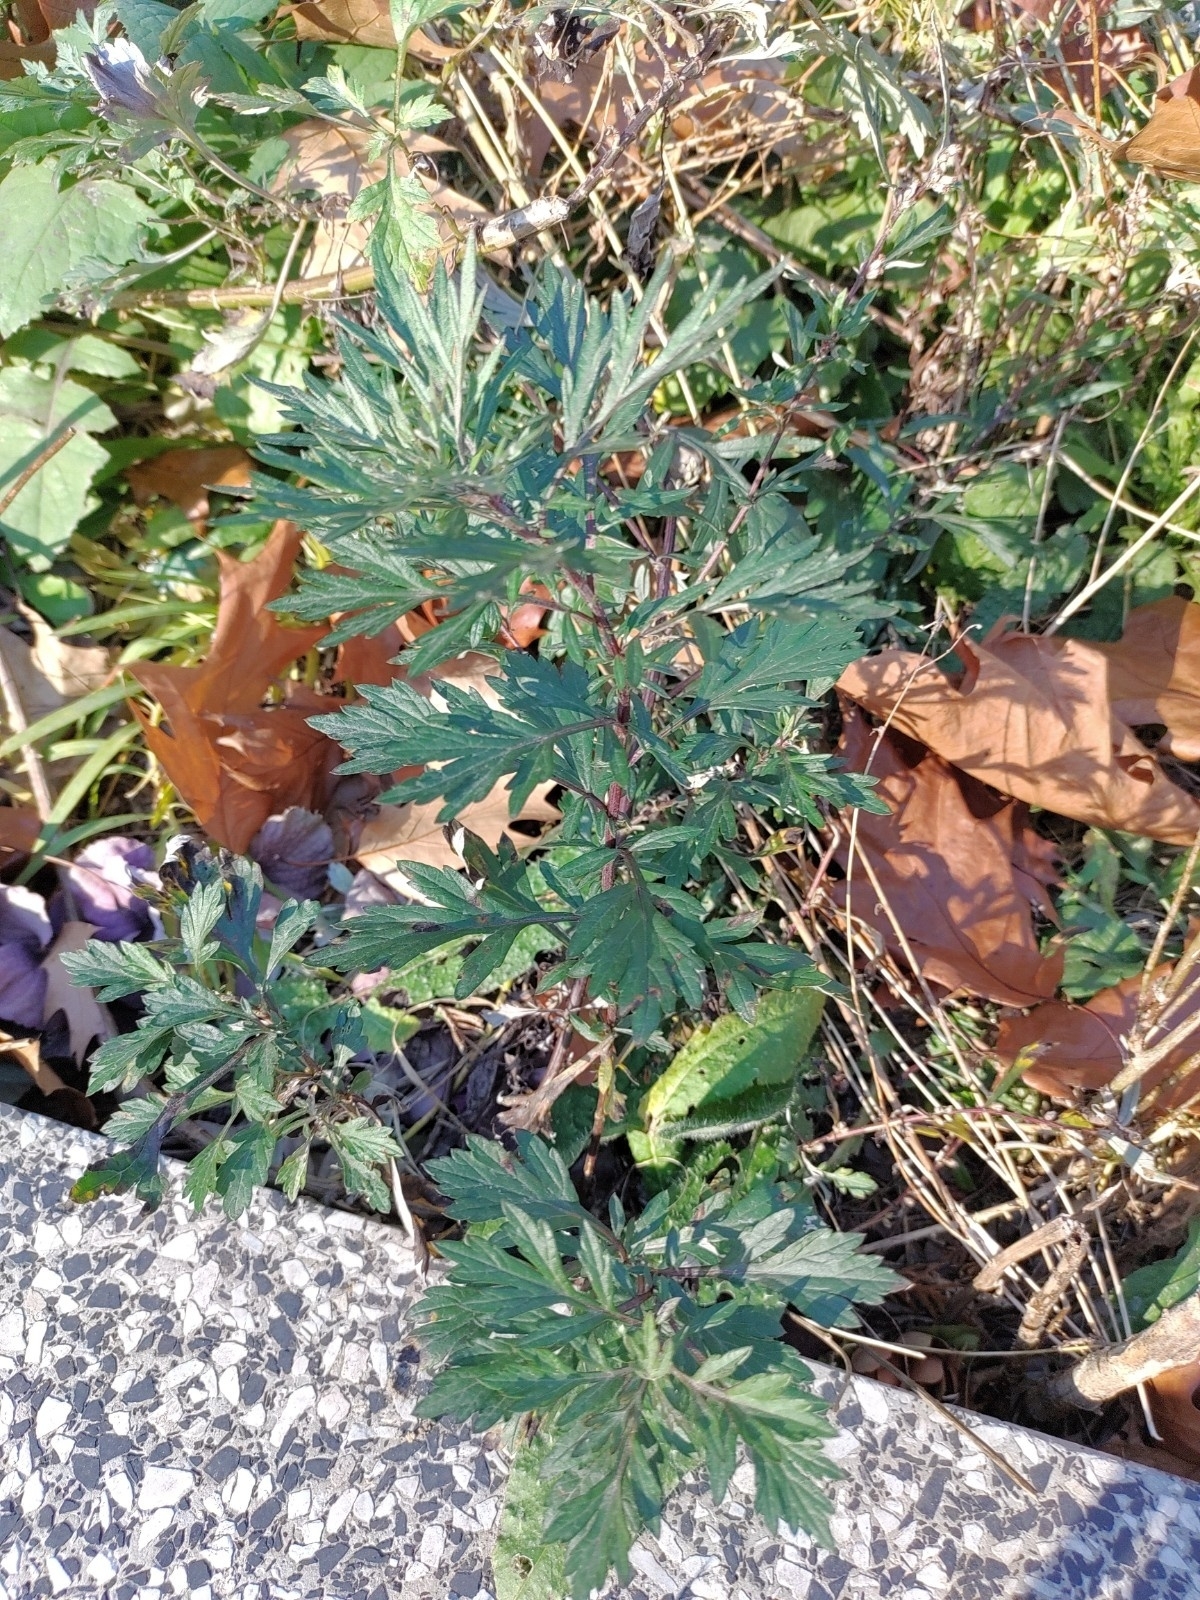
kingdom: Plantae
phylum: Tracheophyta
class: Magnoliopsida
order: Asterales
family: Asteraceae
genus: Artemisia
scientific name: Artemisia vulgaris
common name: Mugwort
